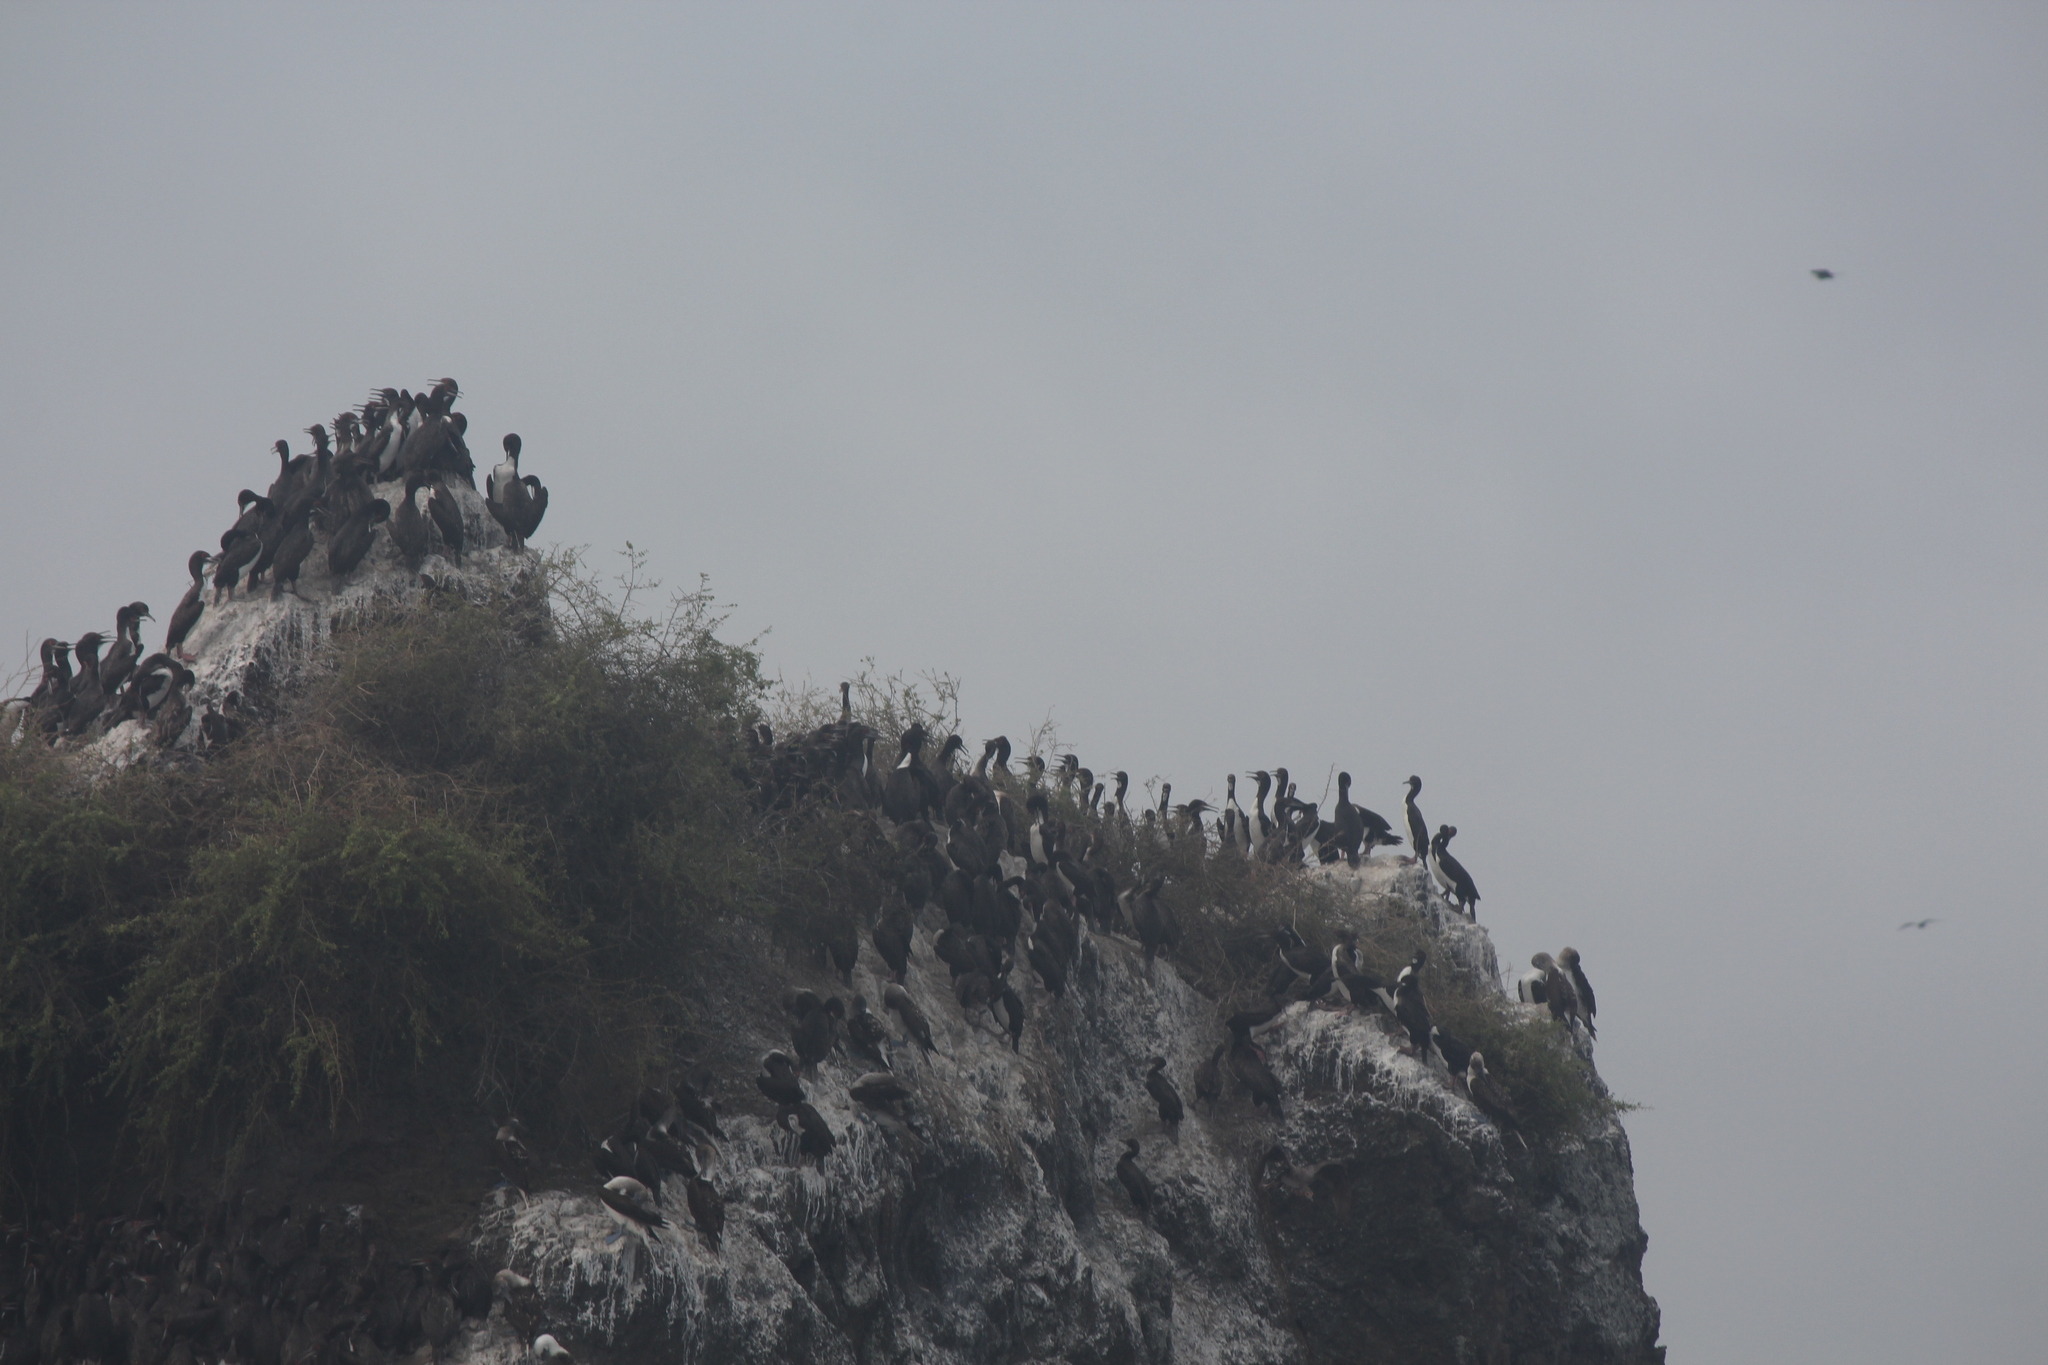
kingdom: Animalia
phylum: Chordata
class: Aves
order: Suliformes
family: Phalacrocoracidae
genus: Leucocarbo
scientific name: Leucocarbo bougainvillii
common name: Guanay cormorant
